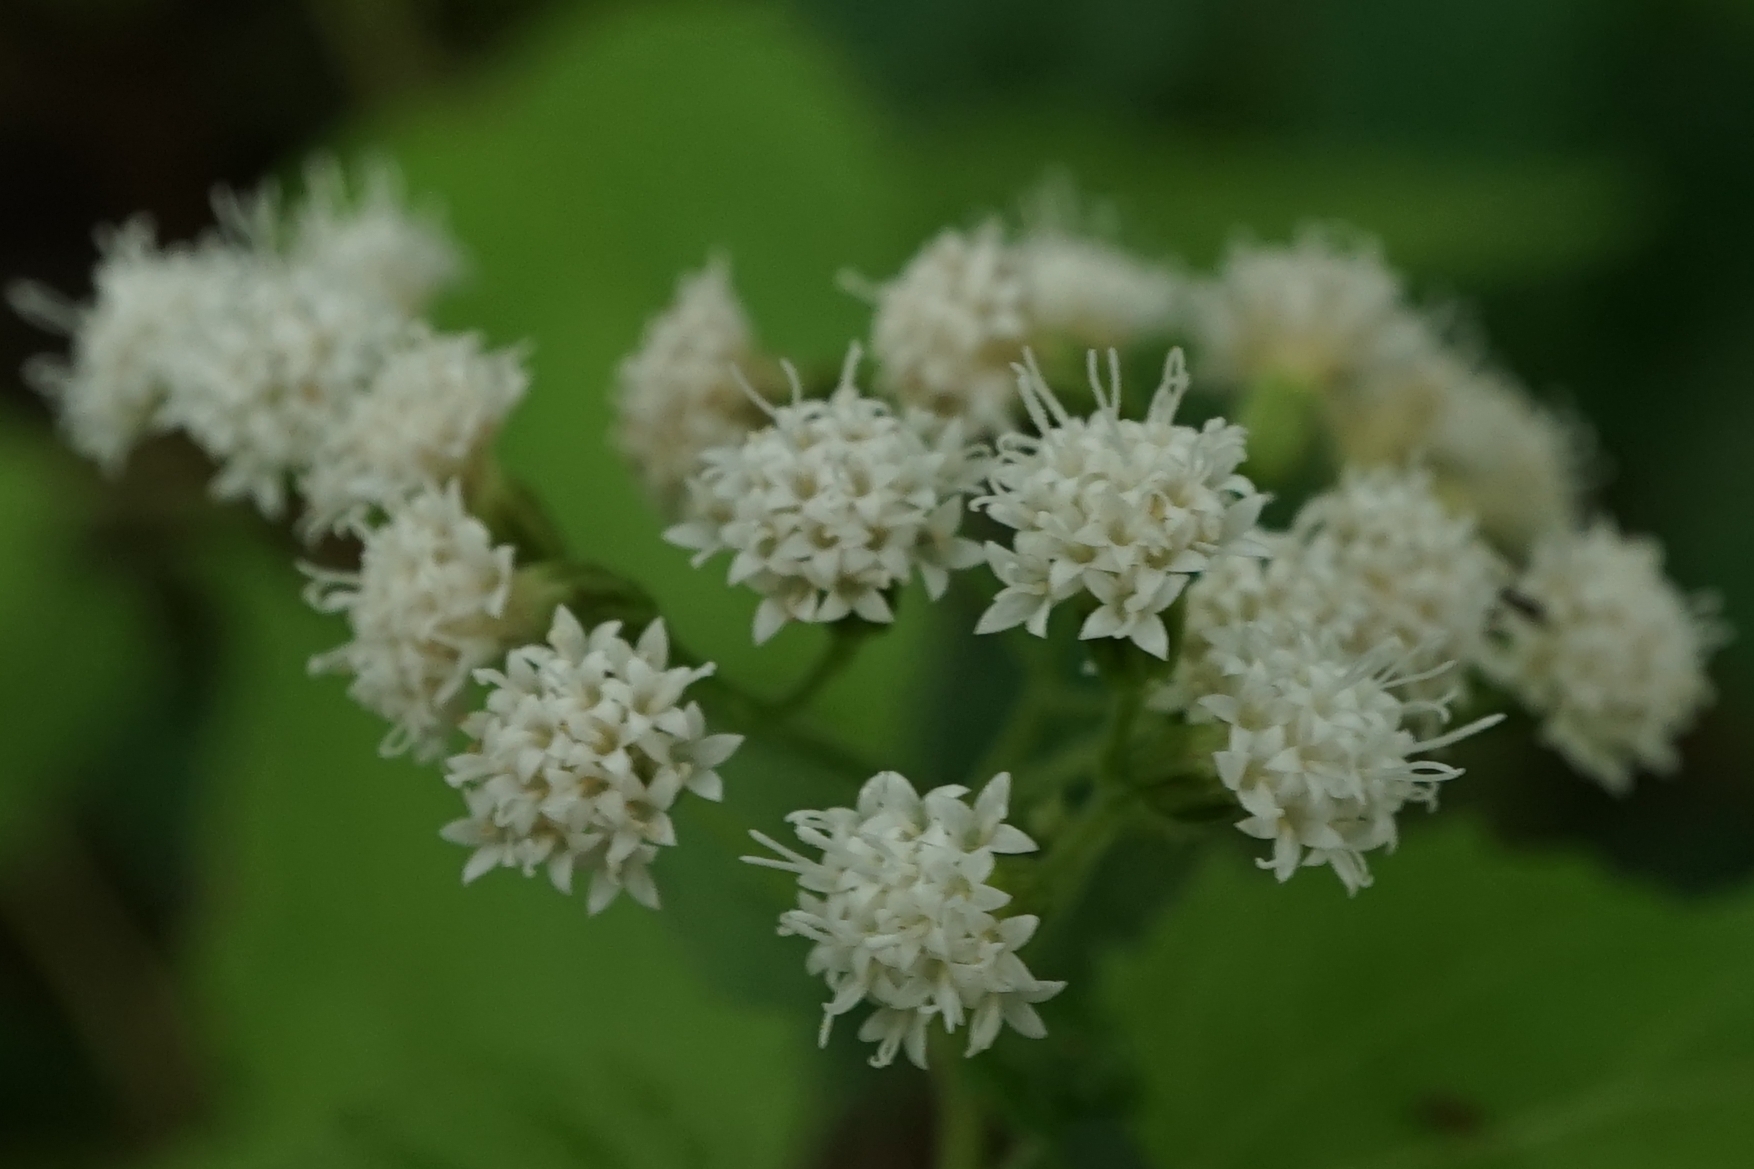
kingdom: Plantae
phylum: Tracheophyta
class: Magnoliopsida
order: Asterales
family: Asteraceae
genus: Ageratina
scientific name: Ageratina altissima
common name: White snakeroot
